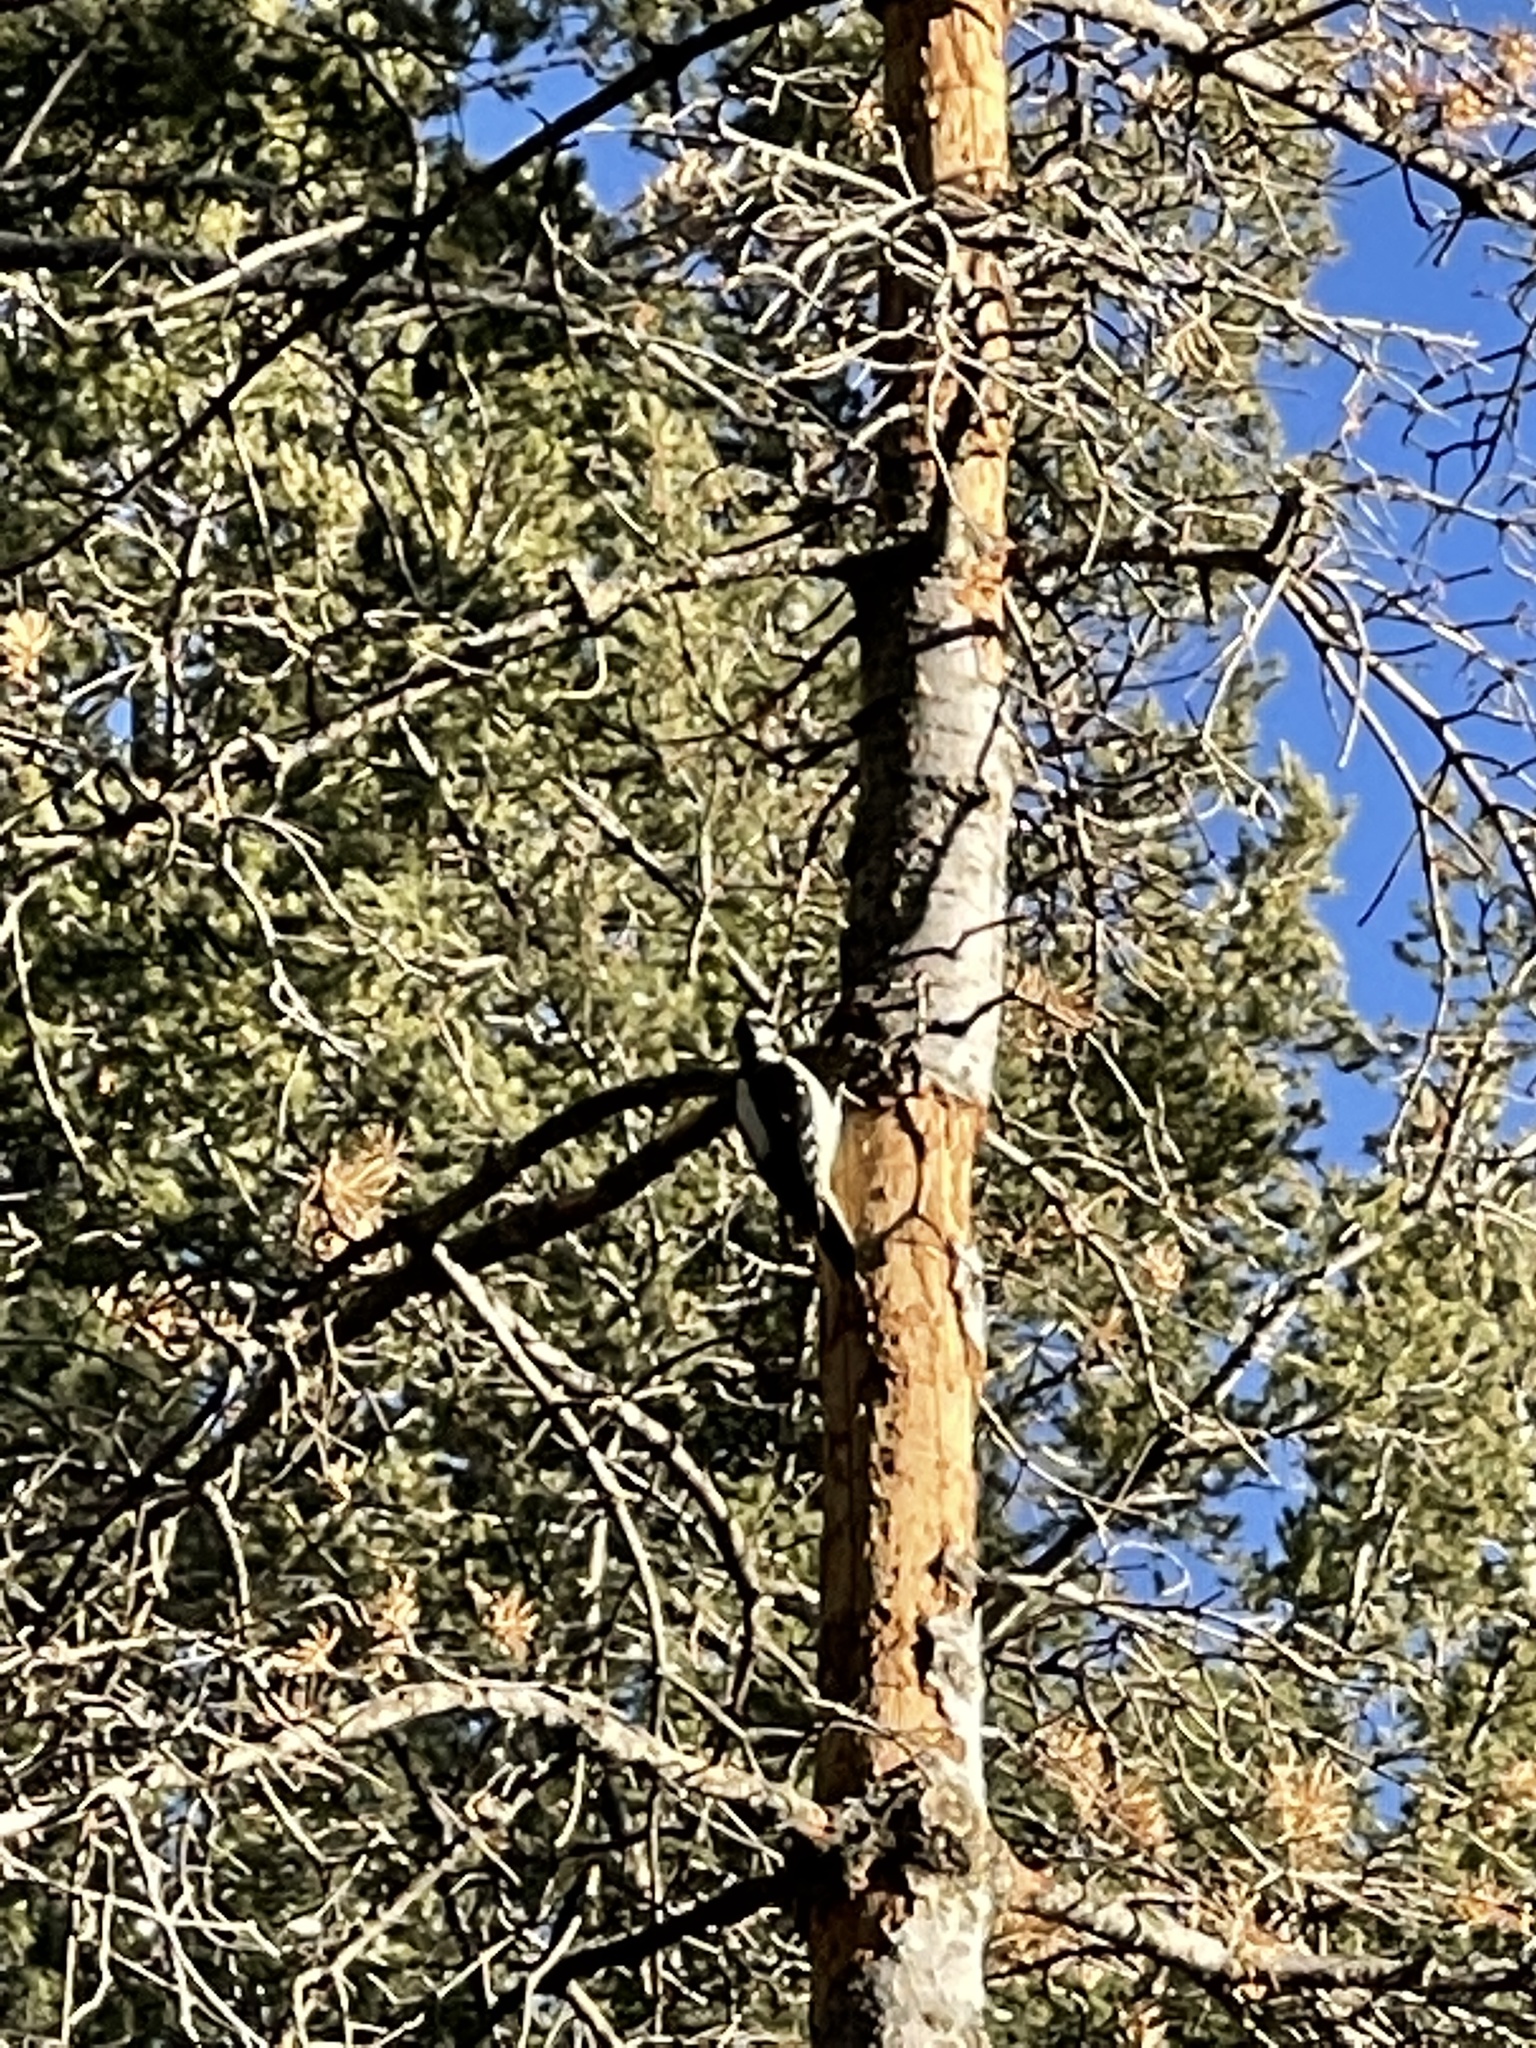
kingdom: Animalia
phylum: Chordata
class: Aves
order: Piciformes
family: Picidae
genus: Leuconotopicus
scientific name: Leuconotopicus villosus
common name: Hairy woodpecker
